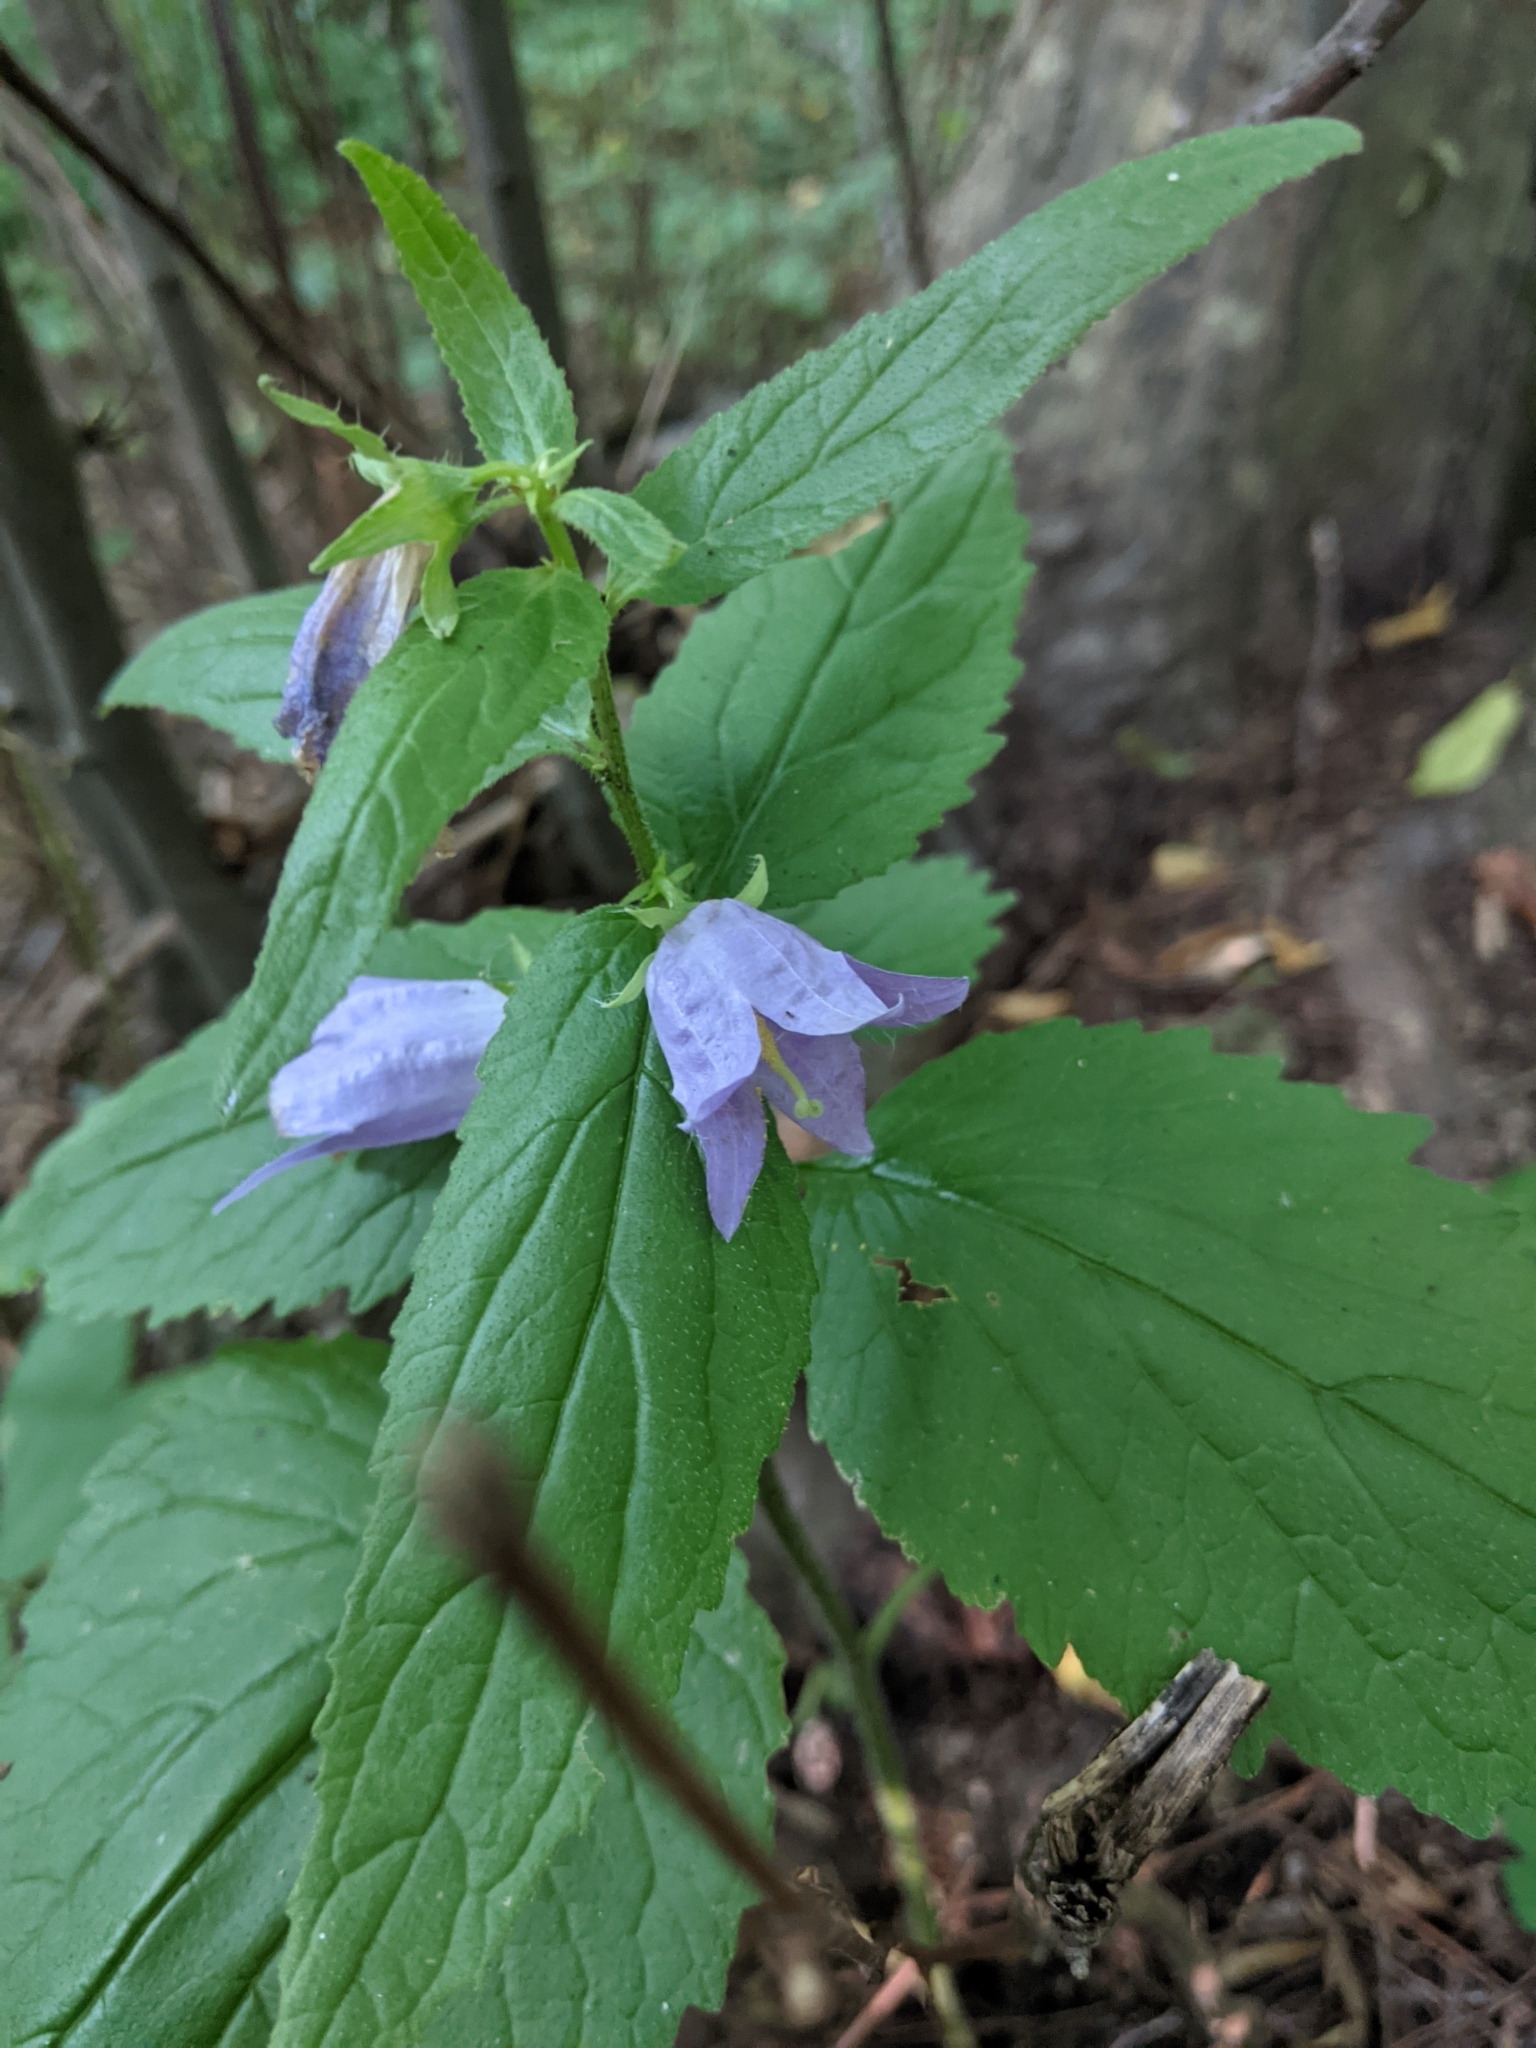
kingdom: Plantae
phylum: Tracheophyta
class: Magnoliopsida
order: Asterales
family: Campanulaceae
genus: Campanula
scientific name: Campanula trachelium
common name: Nettle-leaved bellflower
